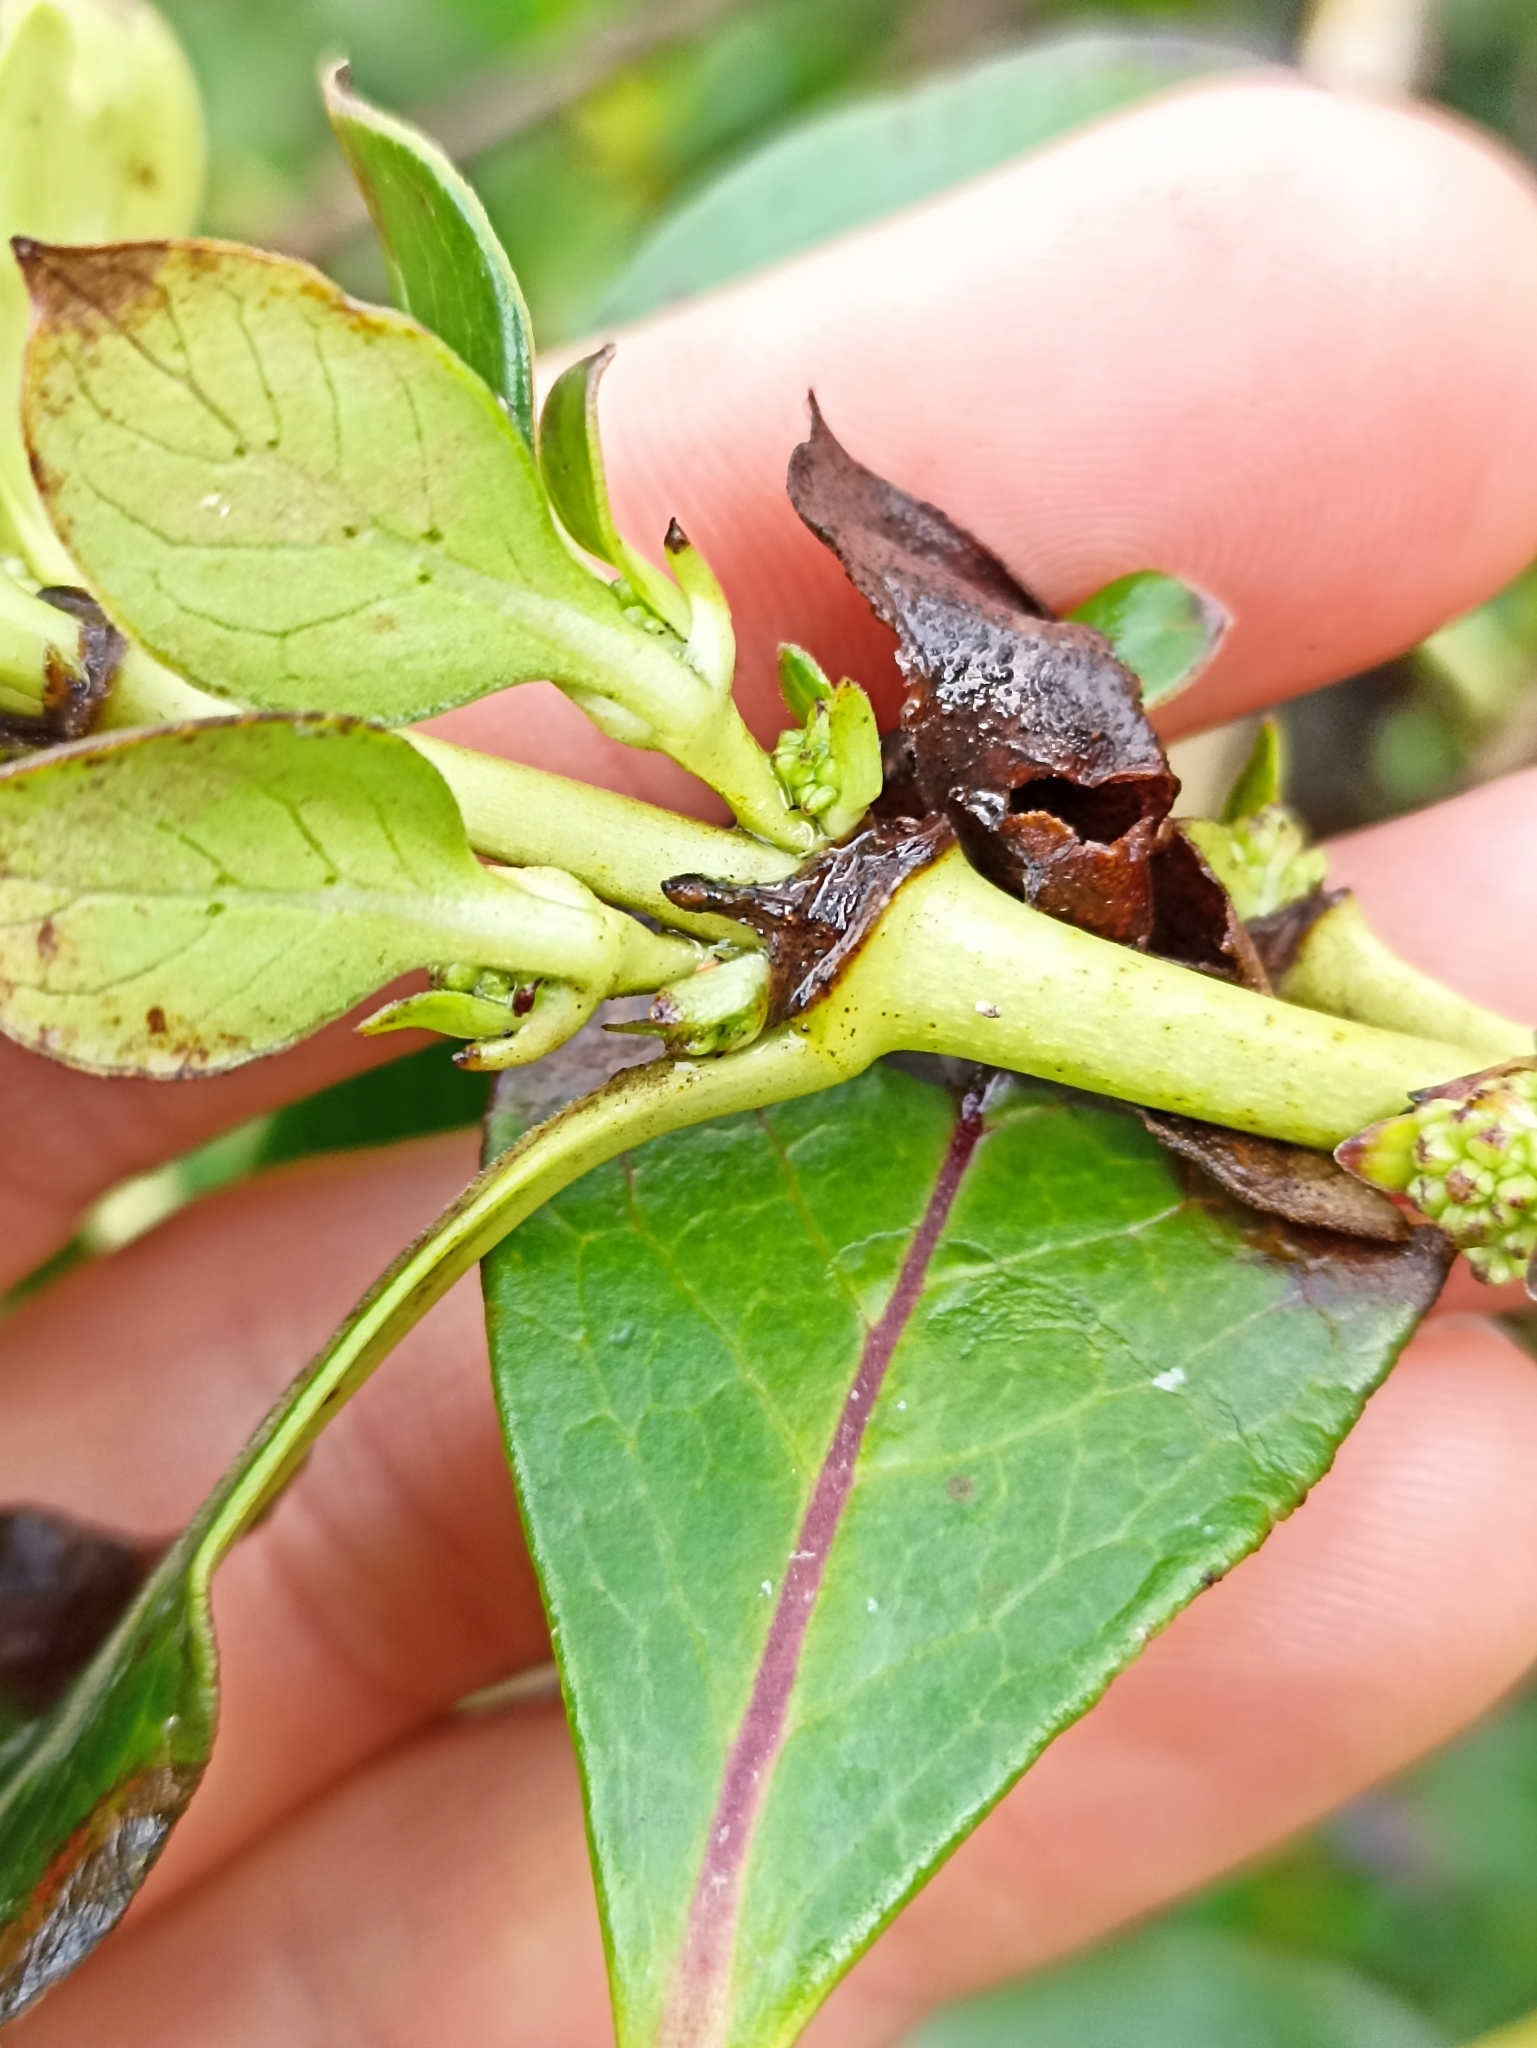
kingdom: Plantae
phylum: Tracheophyta
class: Magnoliopsida
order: Gentianales
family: Rubiaceae
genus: Coprosma
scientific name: Coprosma robusta
